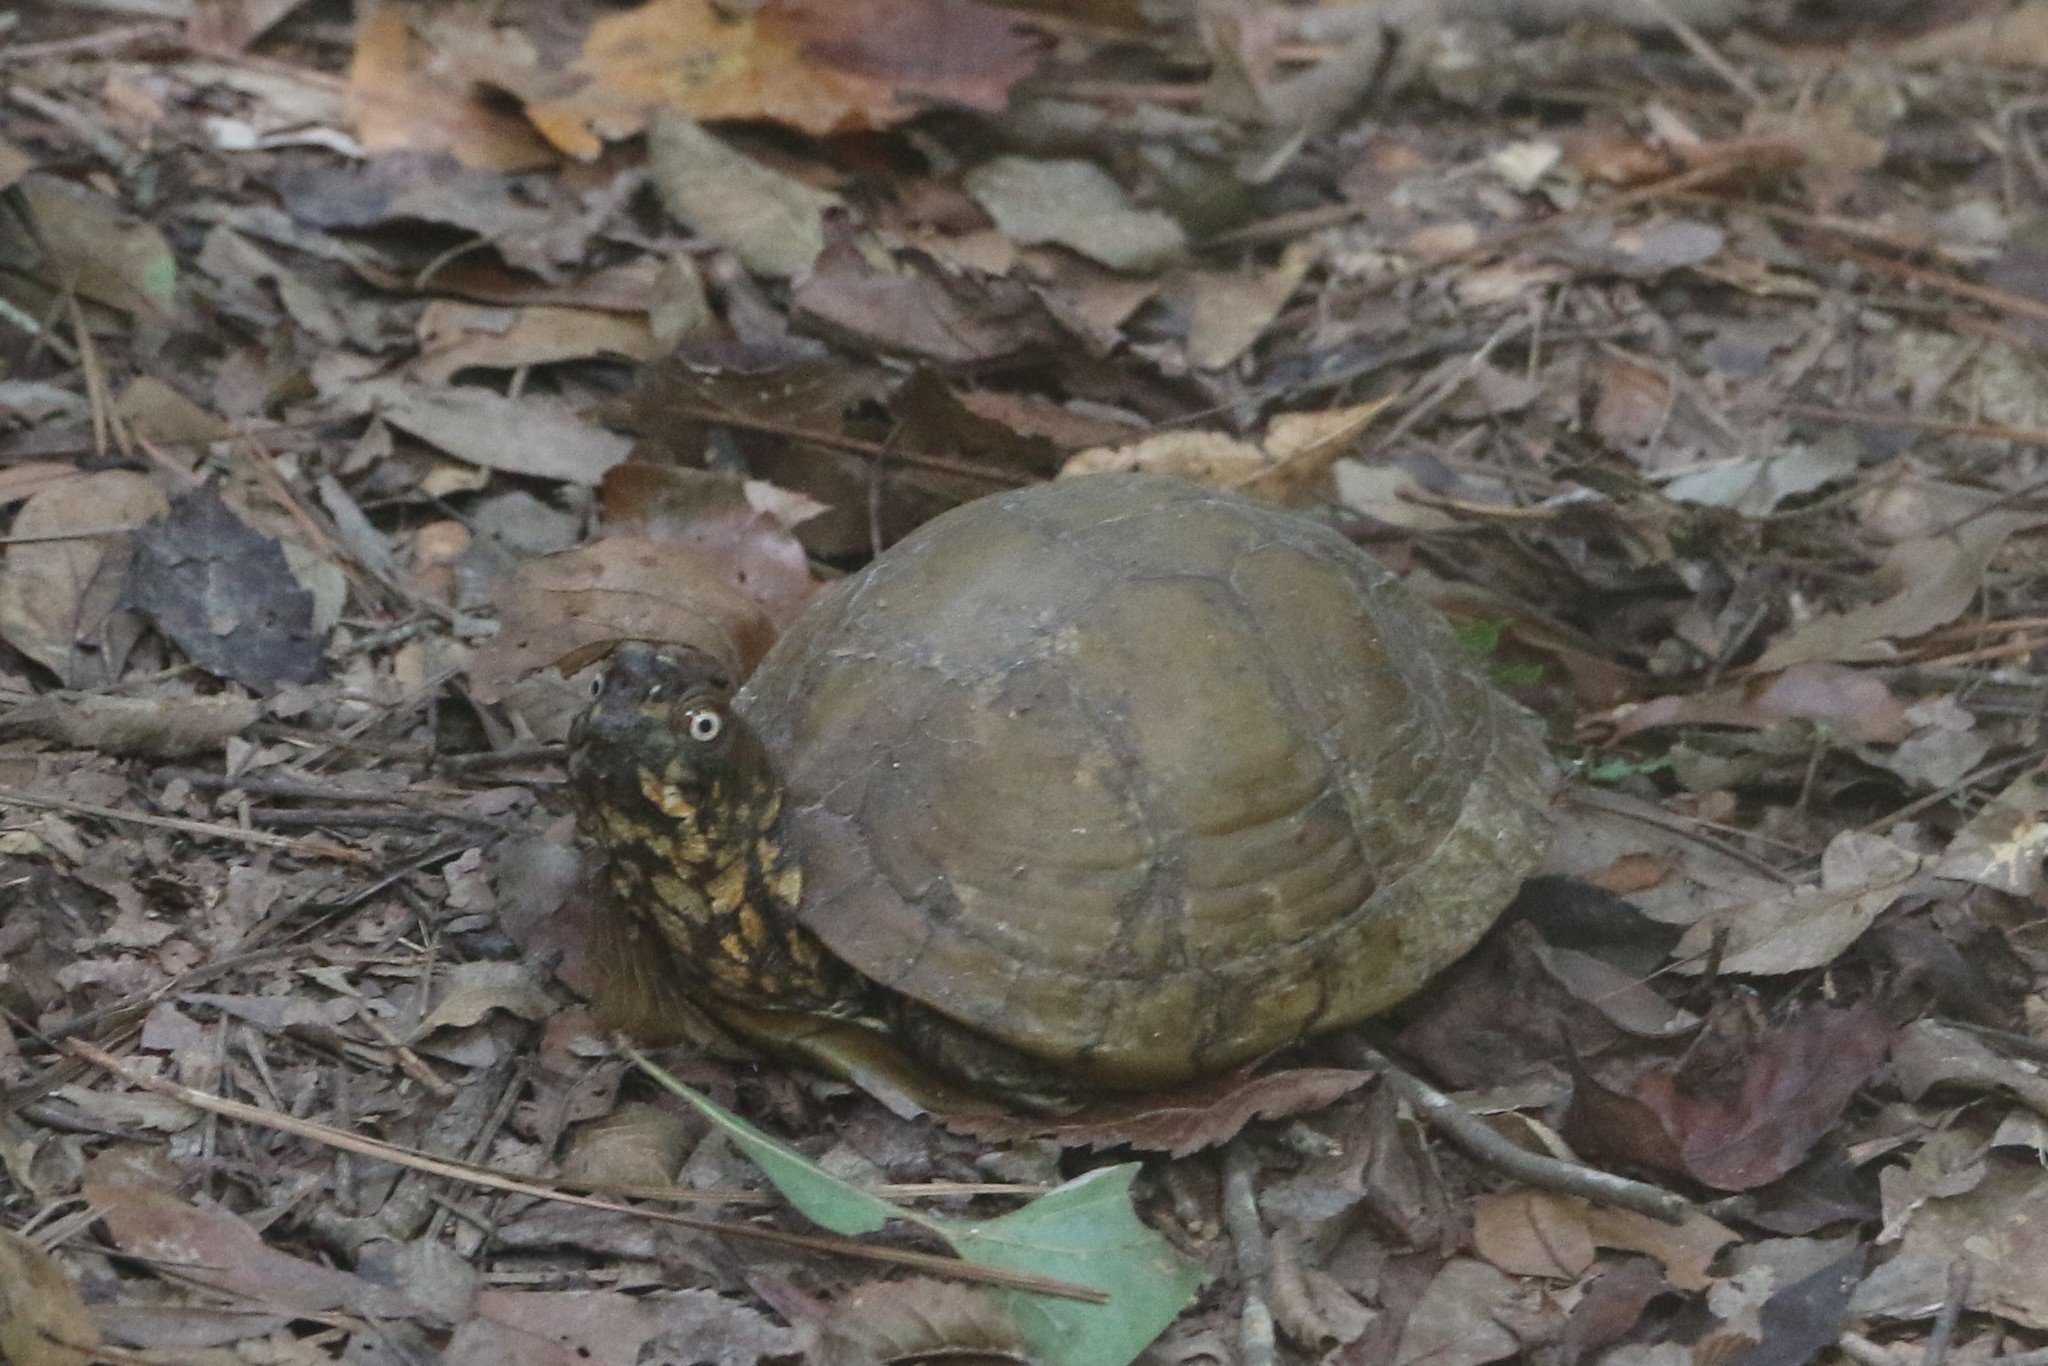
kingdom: Animalia
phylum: Chordata
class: Testudines
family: Emydidae
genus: Terrapene
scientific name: Terrapene carolina
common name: Common box turtle
